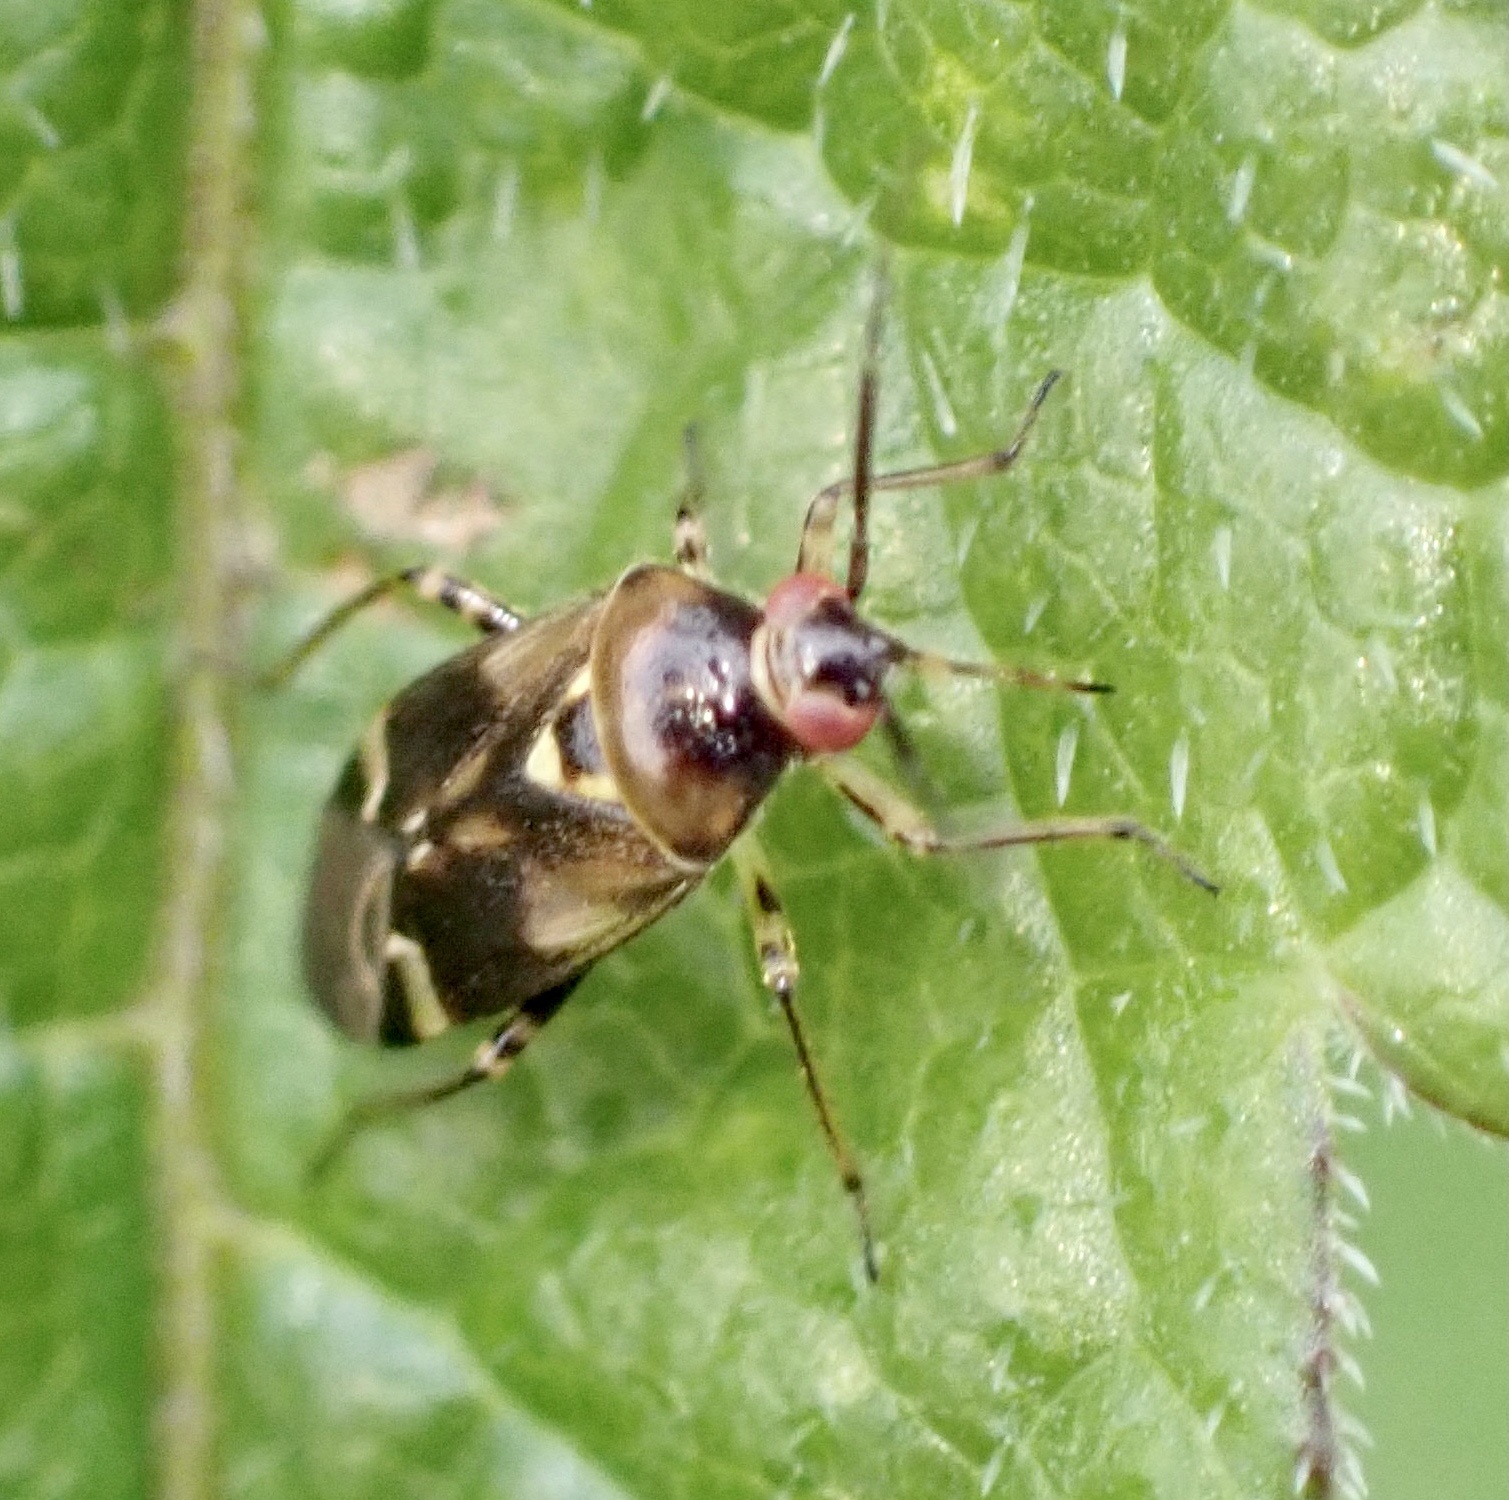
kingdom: Animalia
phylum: Arthropoda
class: Insecta
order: Hemiptera
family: Miridae
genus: Orthops
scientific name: Orthops basalis
